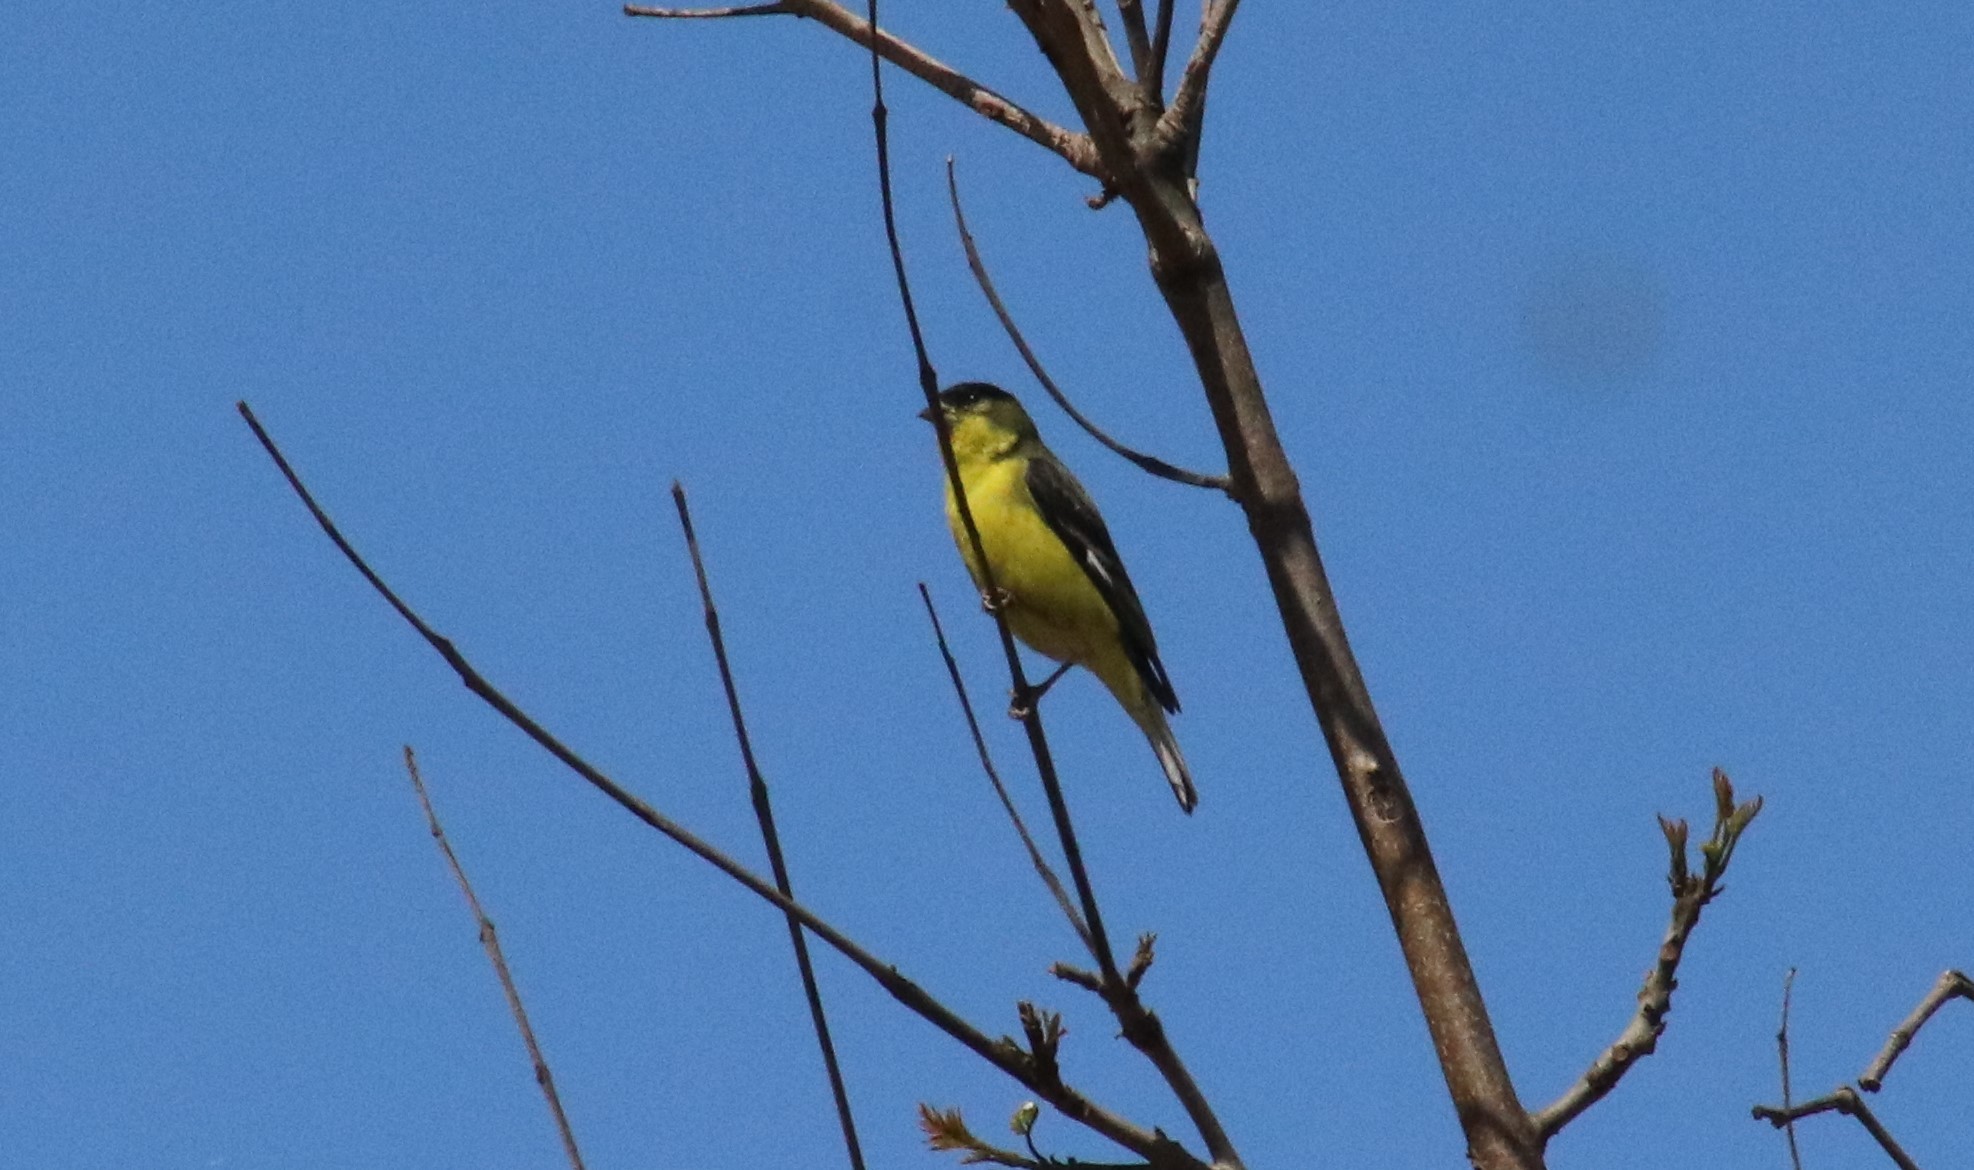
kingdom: Animalia
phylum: Chordata
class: Aves
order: Passeriformes
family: Fringillidae
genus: Spinus
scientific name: Spinus psaltria
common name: Lesser goldfinch
